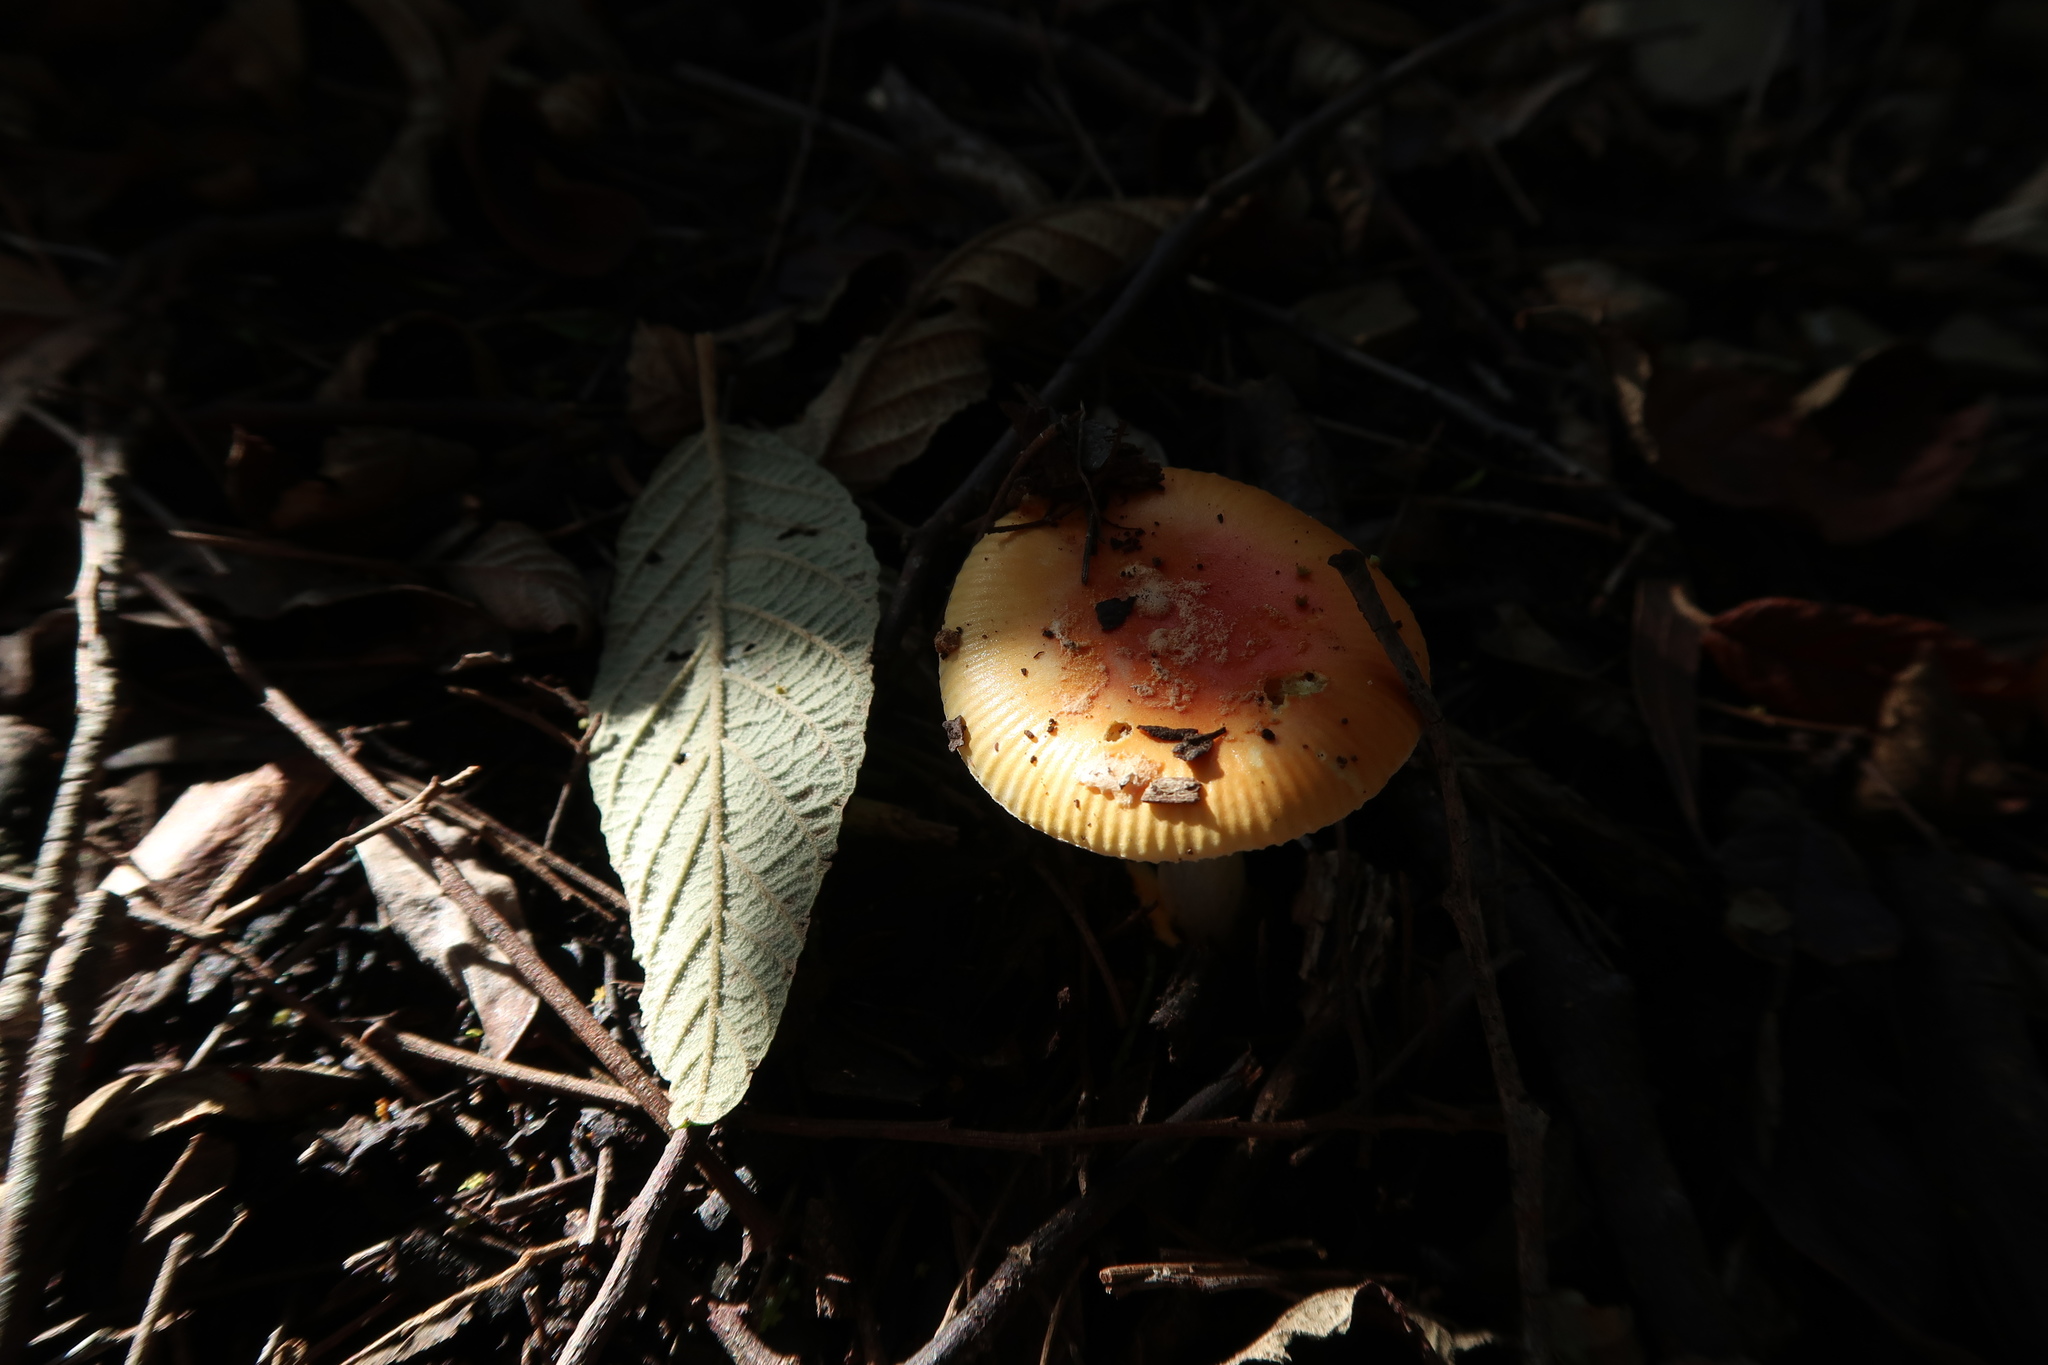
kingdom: Fungi
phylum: Basidiomycota
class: Agaricomycetes
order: Agaricales
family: Amanitaceae
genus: Amanita
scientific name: Amanita xanthocephala
